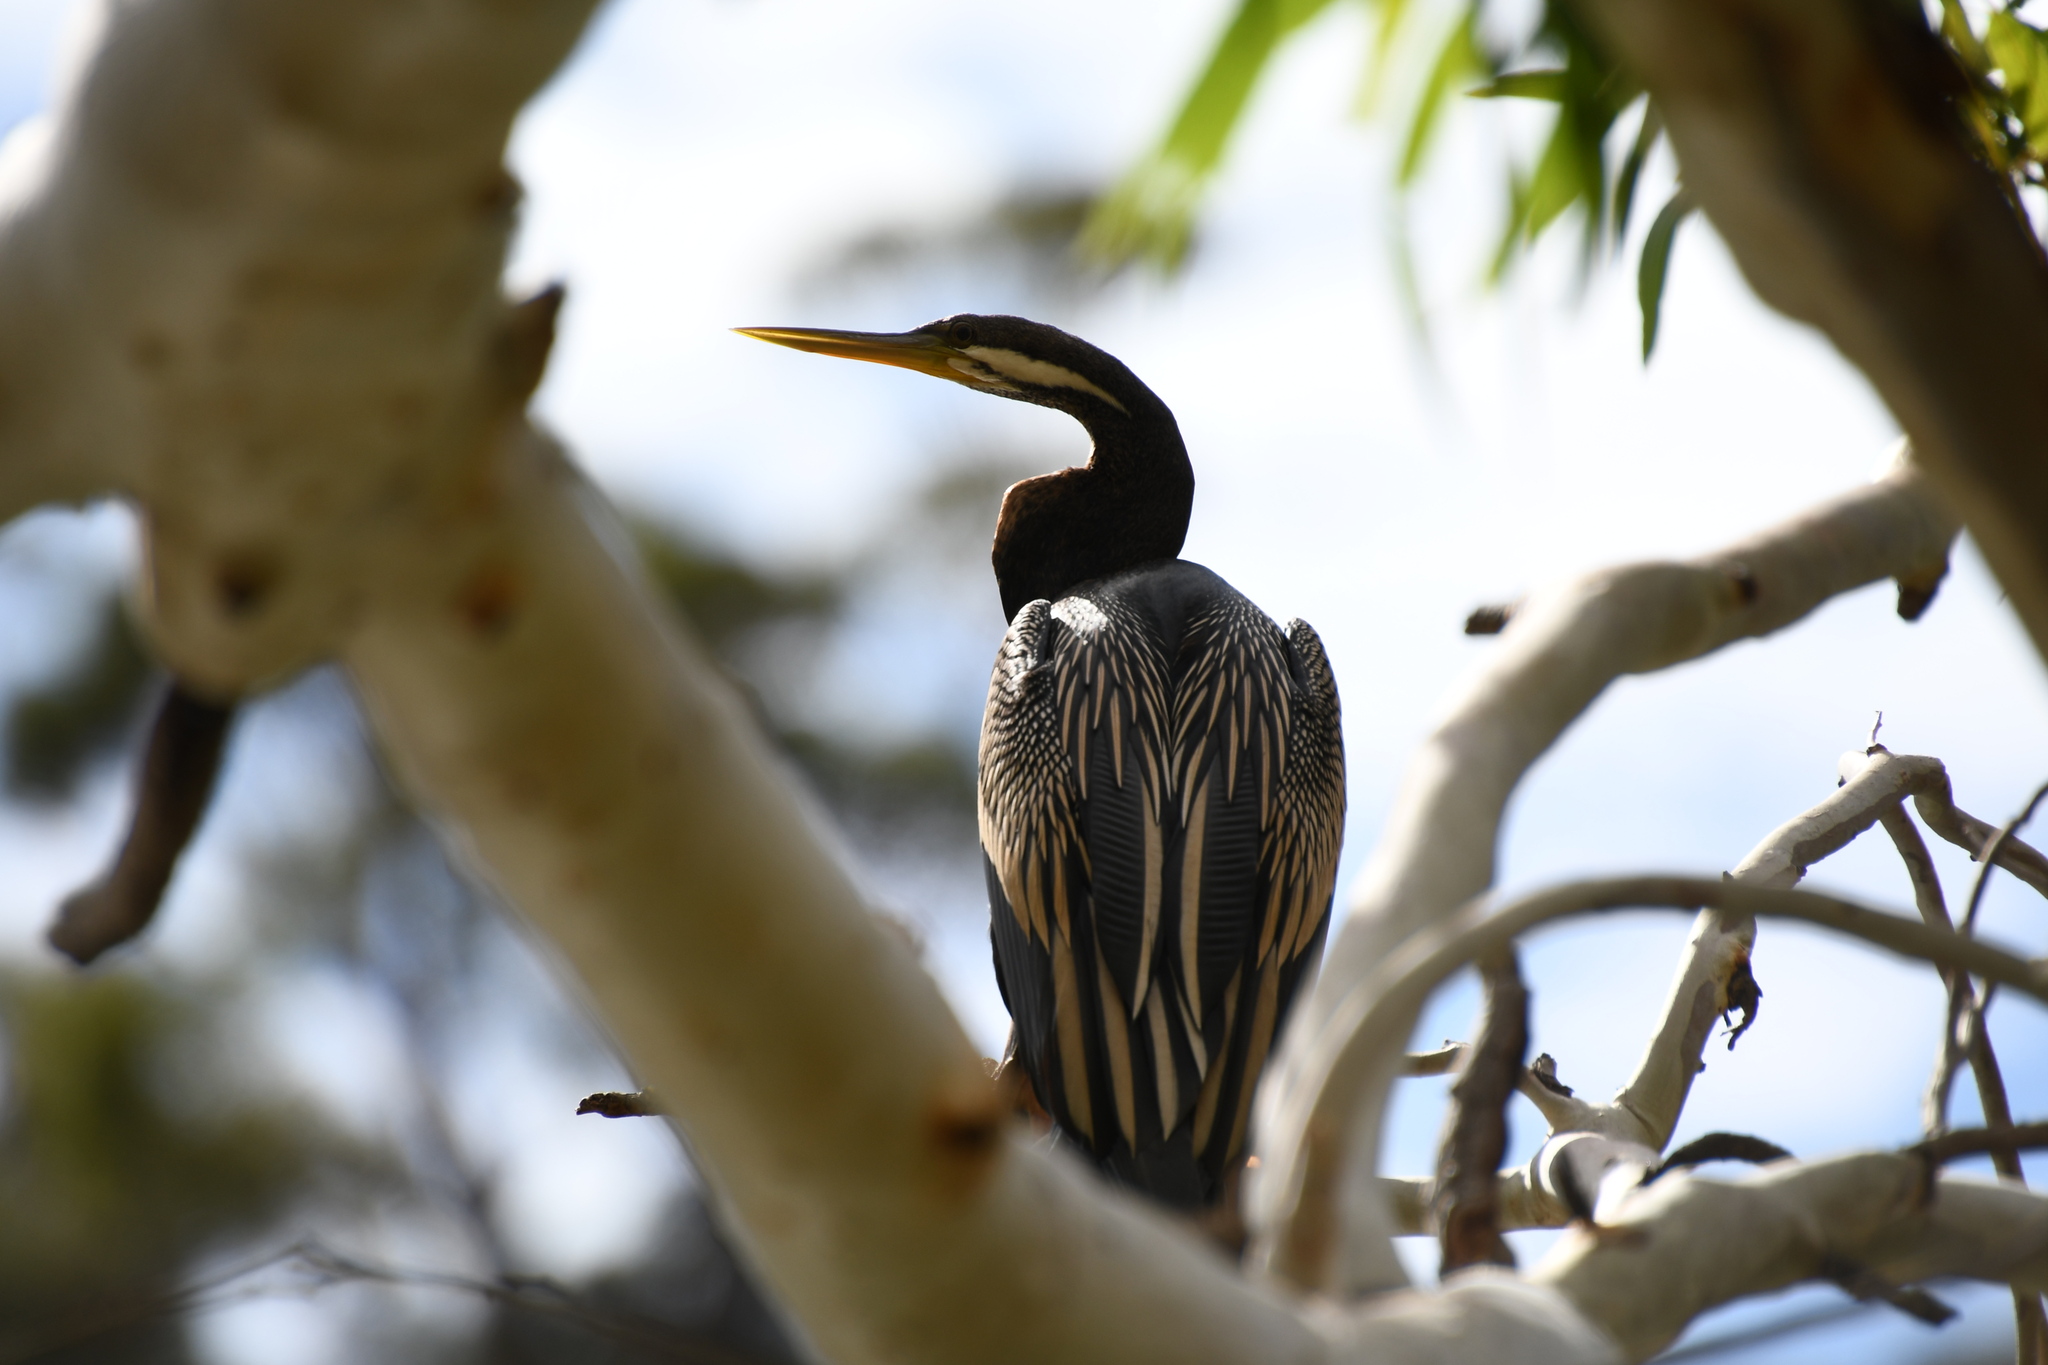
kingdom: Animalia
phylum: Chordata
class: Aves
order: Suliformes
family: Anhingidae
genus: Anhinga
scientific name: Anhinga novaehollandiae
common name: Australasian darter
